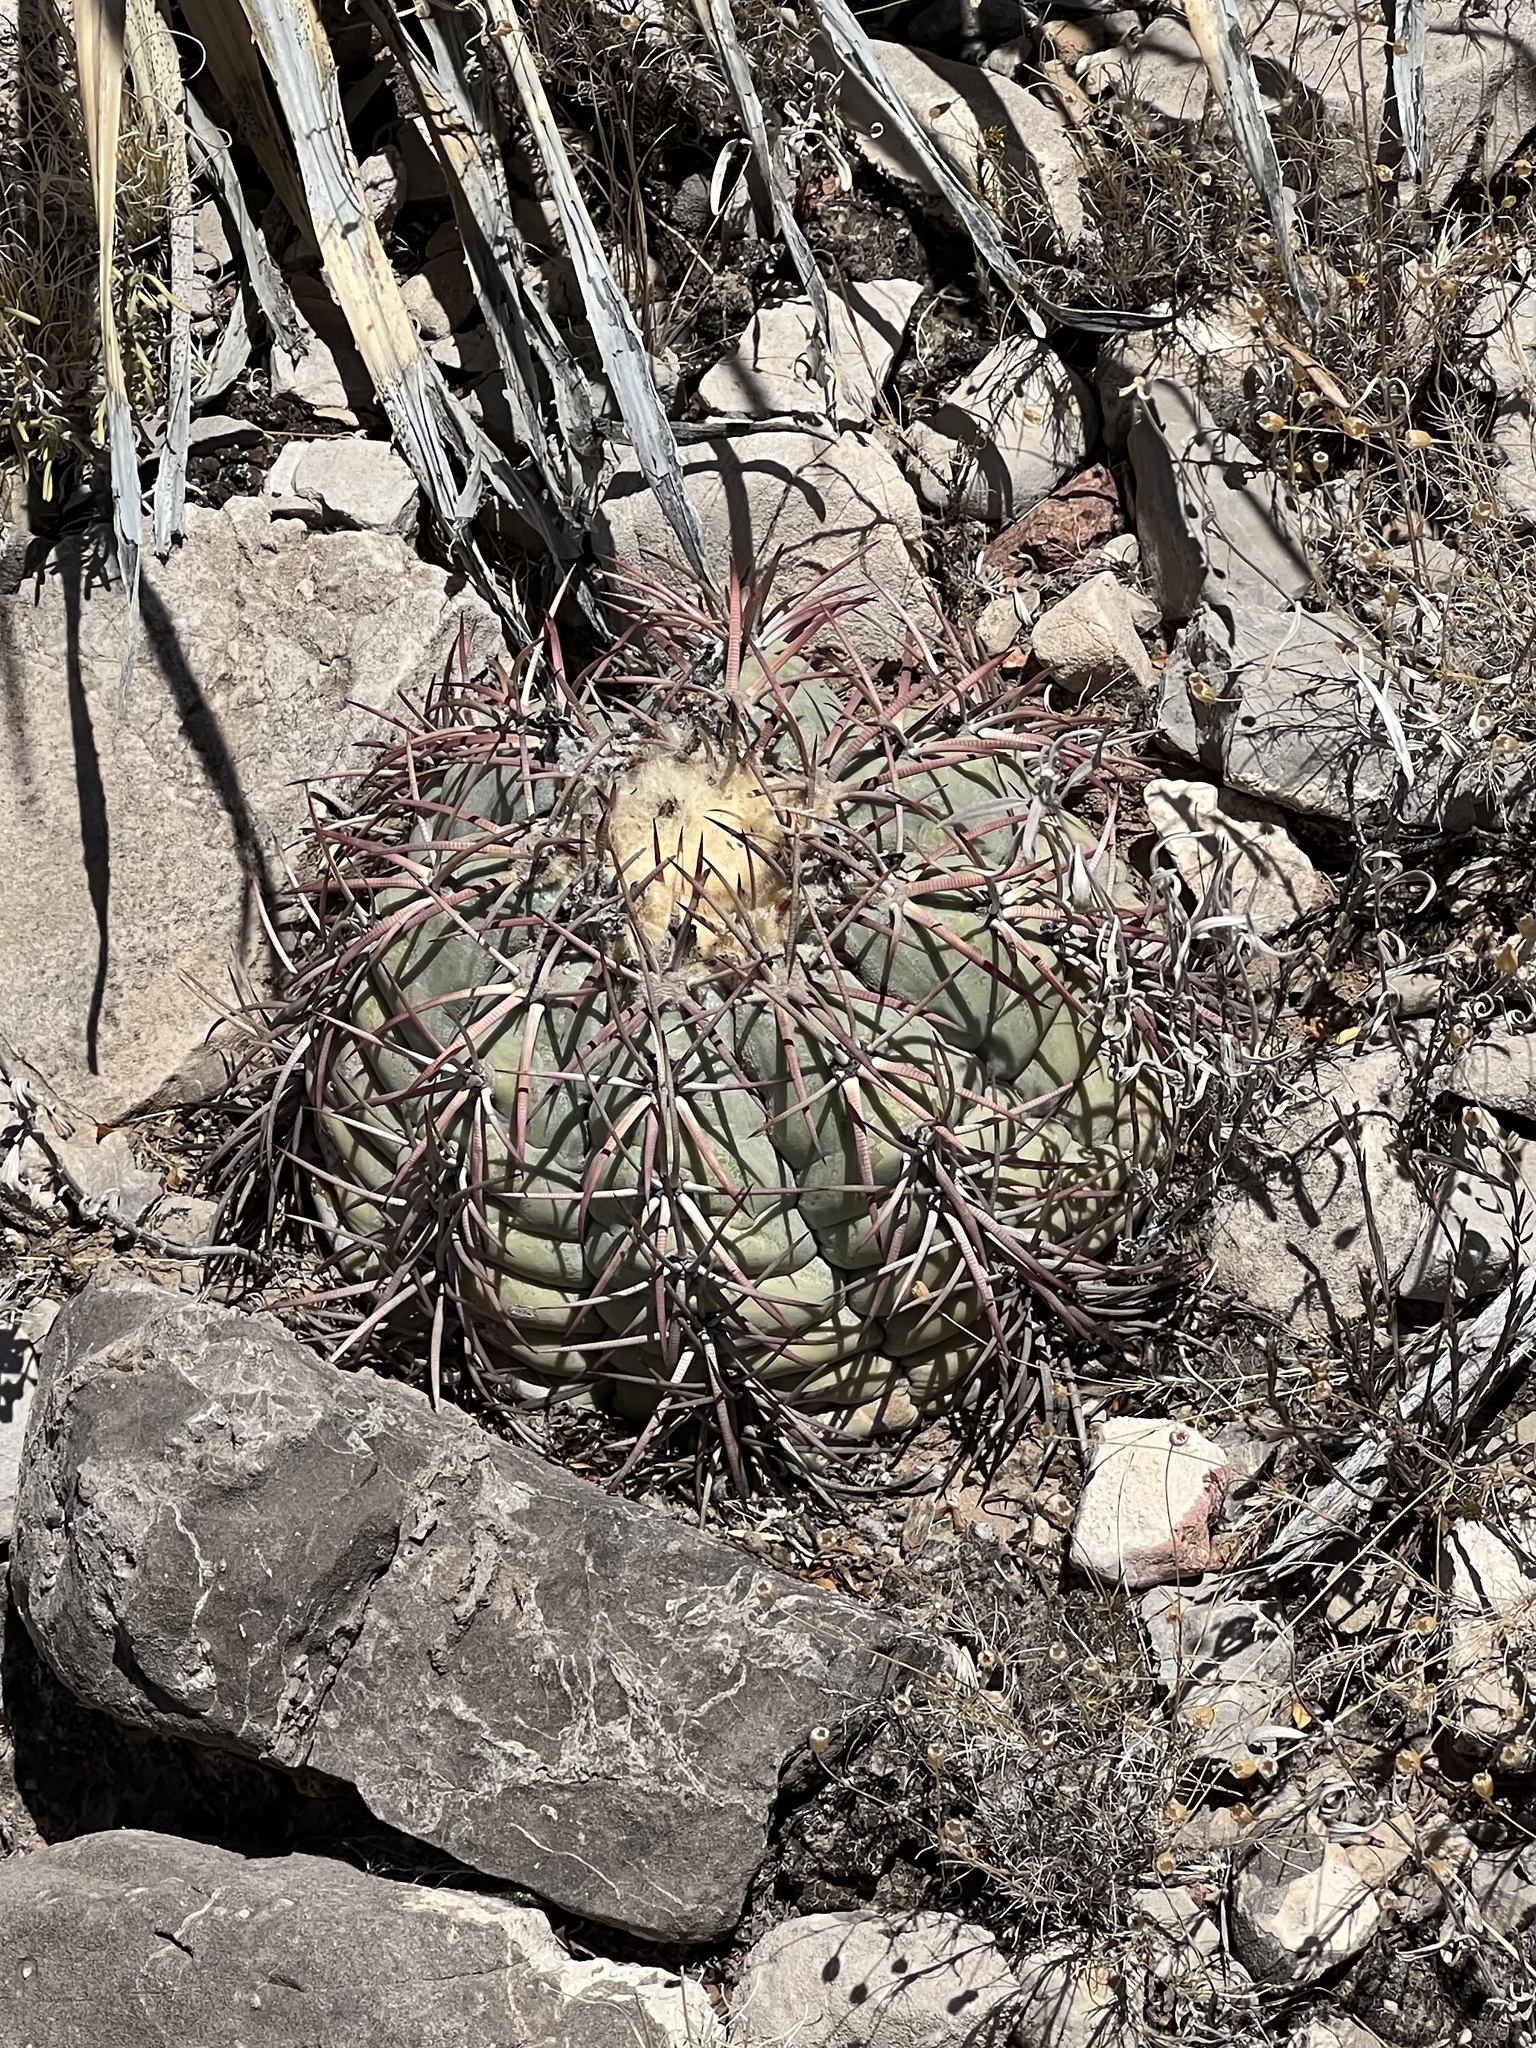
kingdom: Plantae
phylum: Tracheophyta
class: Magnoliopsida
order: Caryophyllales
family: Cactaceae
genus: Echinocactus
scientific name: Echinocactus horizonthalonius
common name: Devilshead
